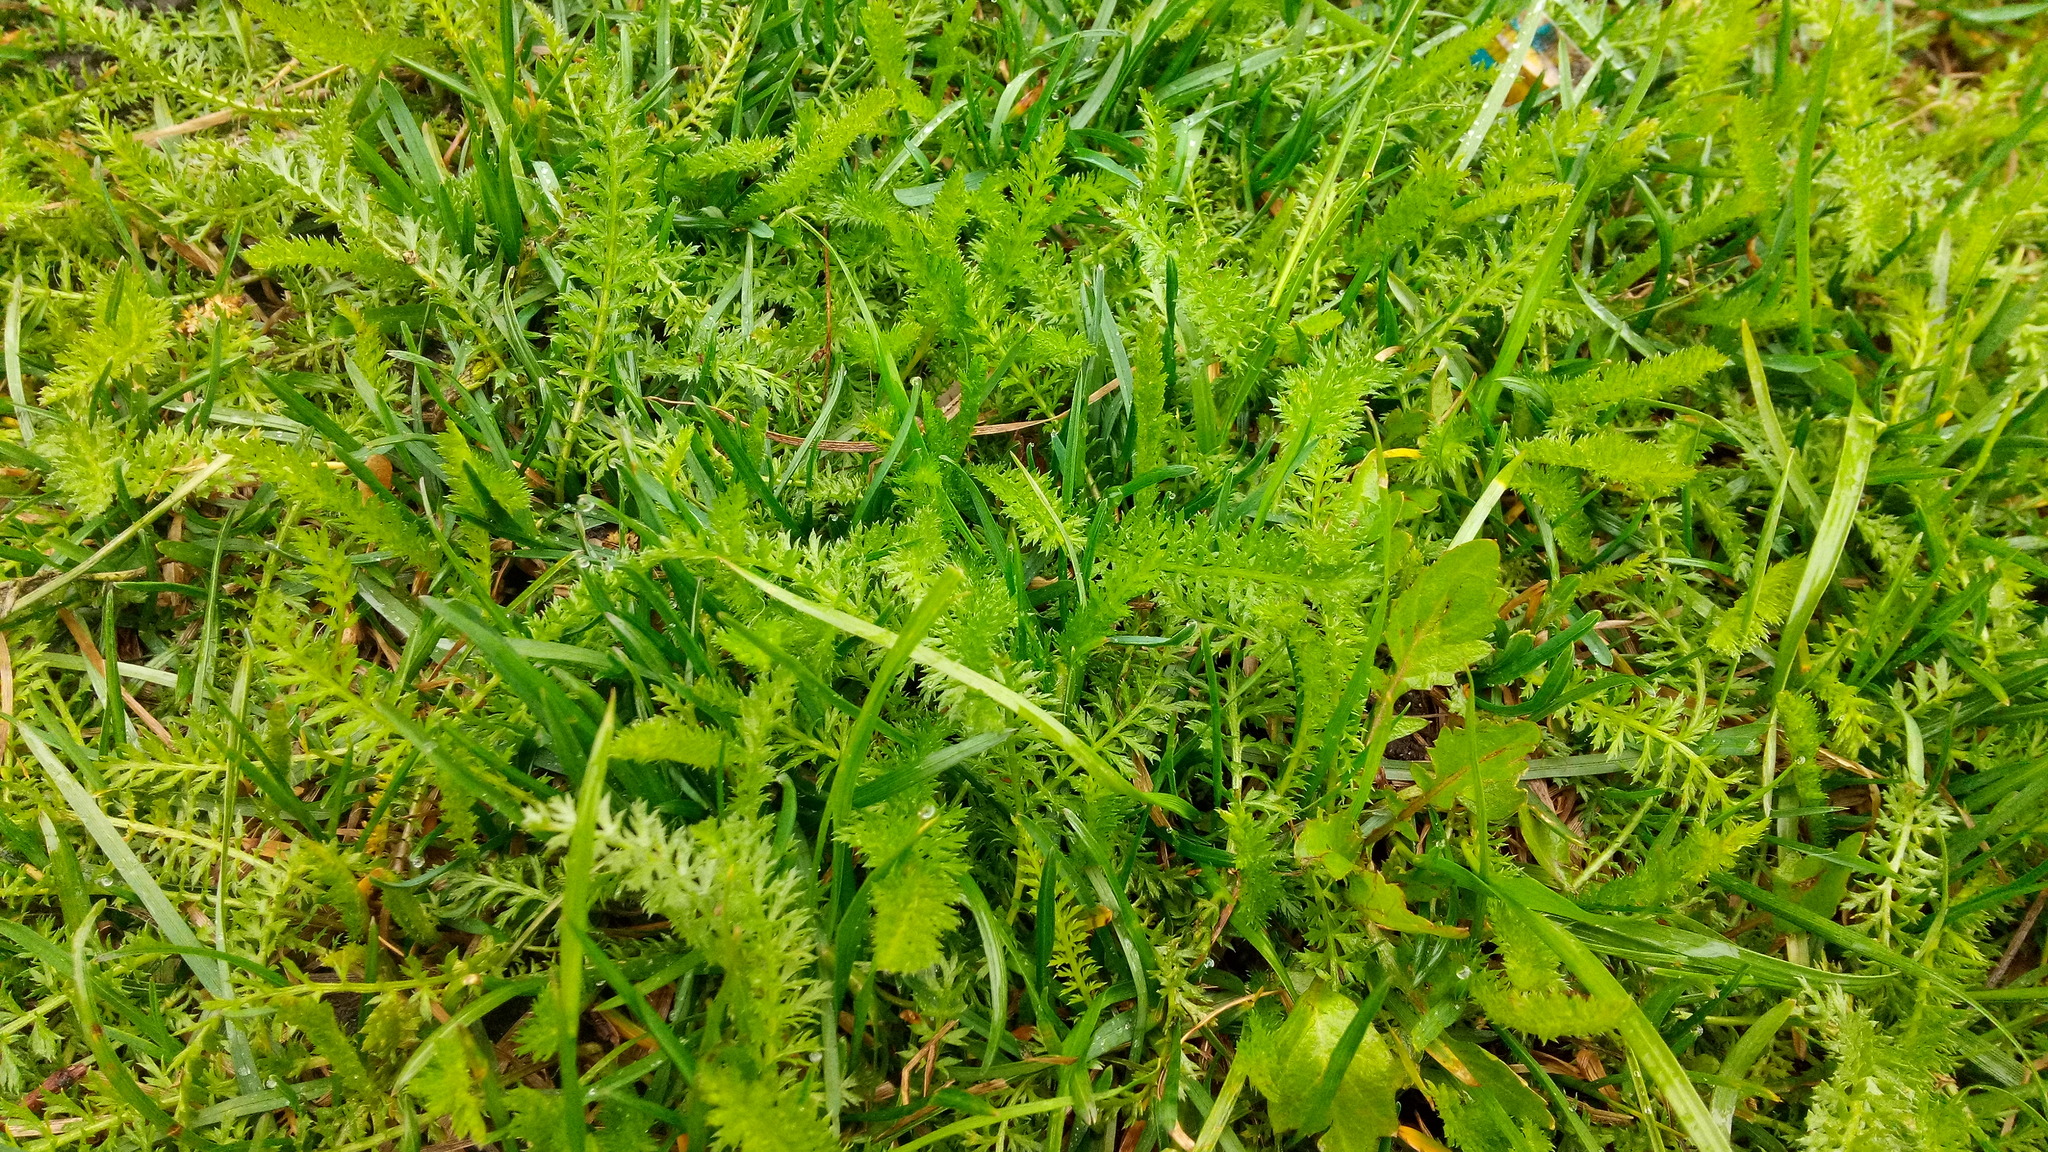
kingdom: Plantae
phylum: Tracheophyta
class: Magnoliopsida
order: Asterales
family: Asteraceae
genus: Achillea
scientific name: Achillea millefolium
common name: Yarrow
